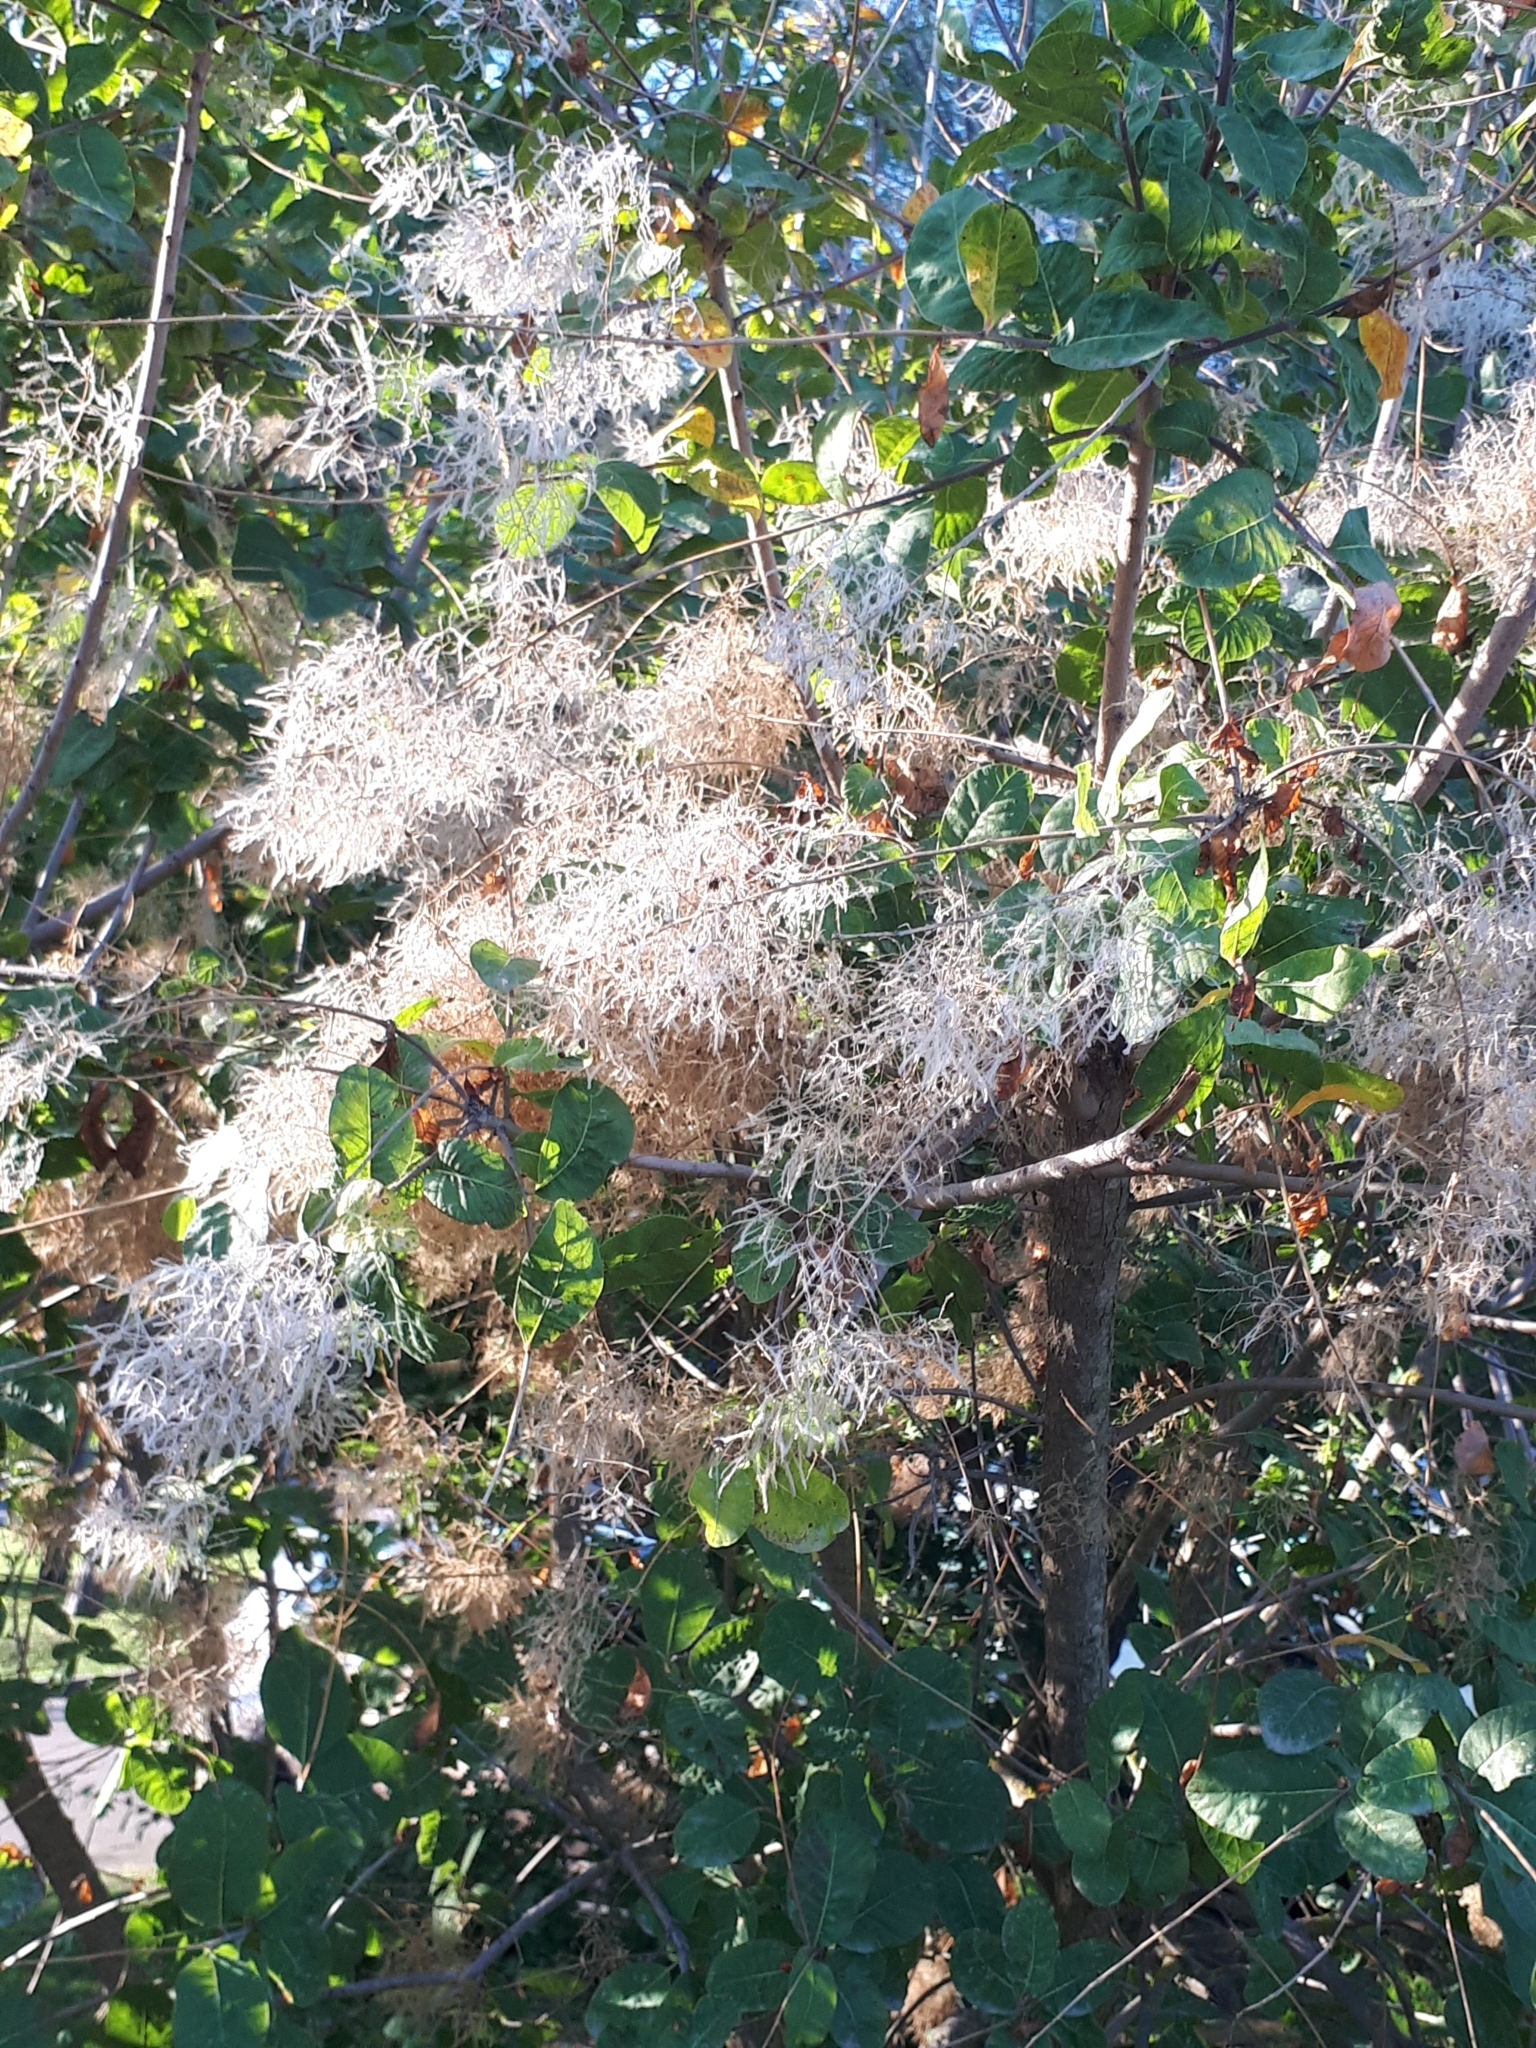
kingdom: Plantae
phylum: Tracheophyta
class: Magnoliopsida
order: Sapindales
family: Anacardiaceae
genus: Cotinus
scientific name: Cotinus coggygria
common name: Smoke-tree
